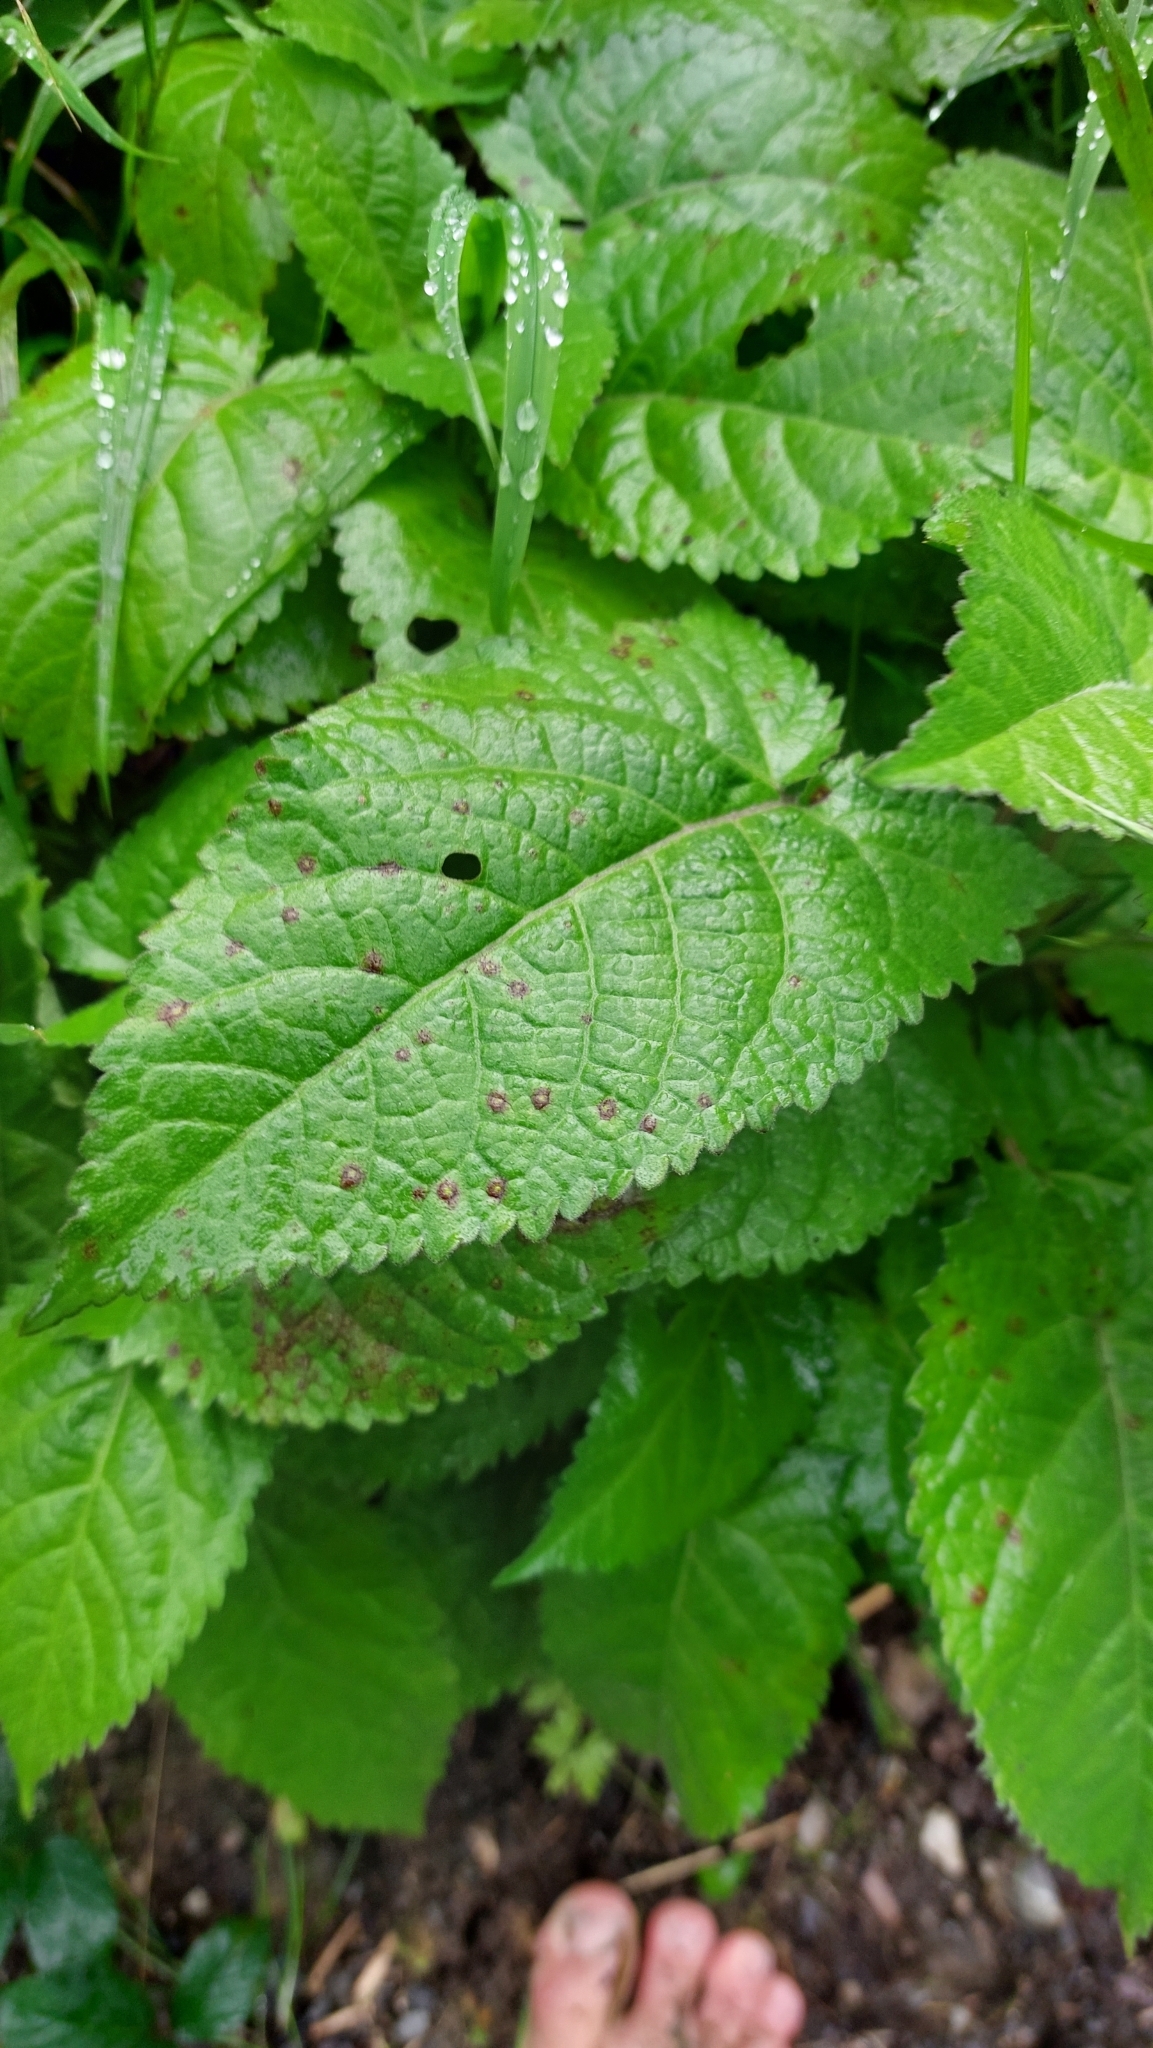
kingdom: Plantae
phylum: Tracheophyta
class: Magnoliopsida
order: Lamiales
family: Lamiaceae
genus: Salvia
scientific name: Salvia glutinosa
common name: Sticky clary
